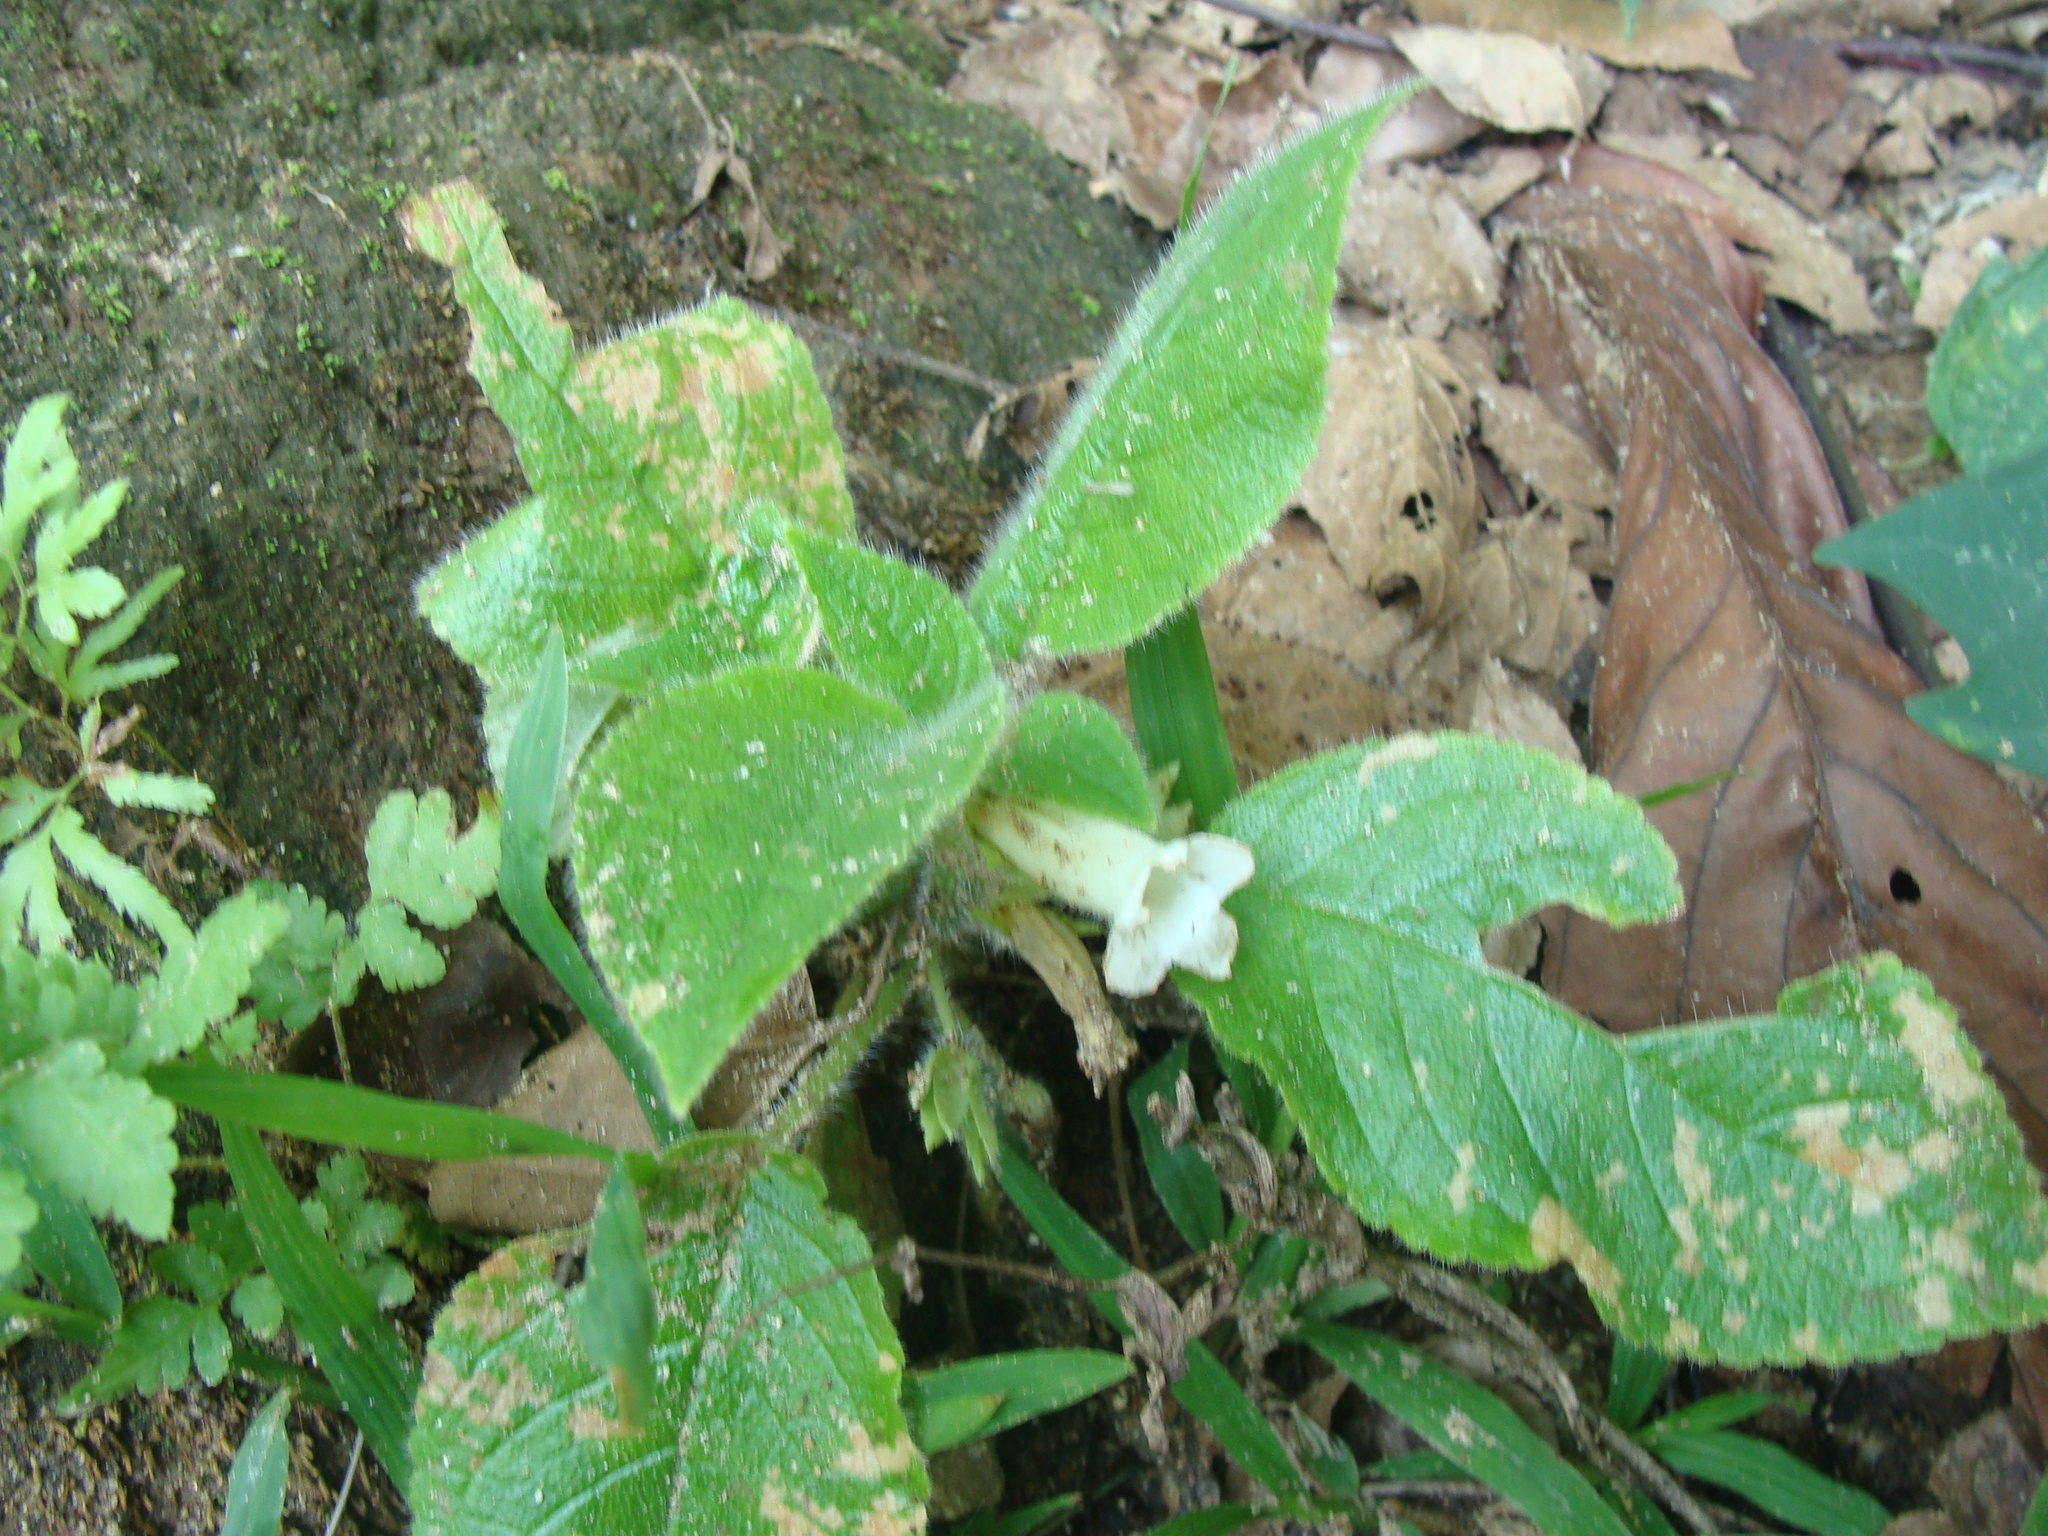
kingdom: Plantae
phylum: Tracheophyta
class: Magnoliopsida
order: Lamiales
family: Gesneriaceae
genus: Chrysothemis
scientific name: Chrysothemis panamensis
